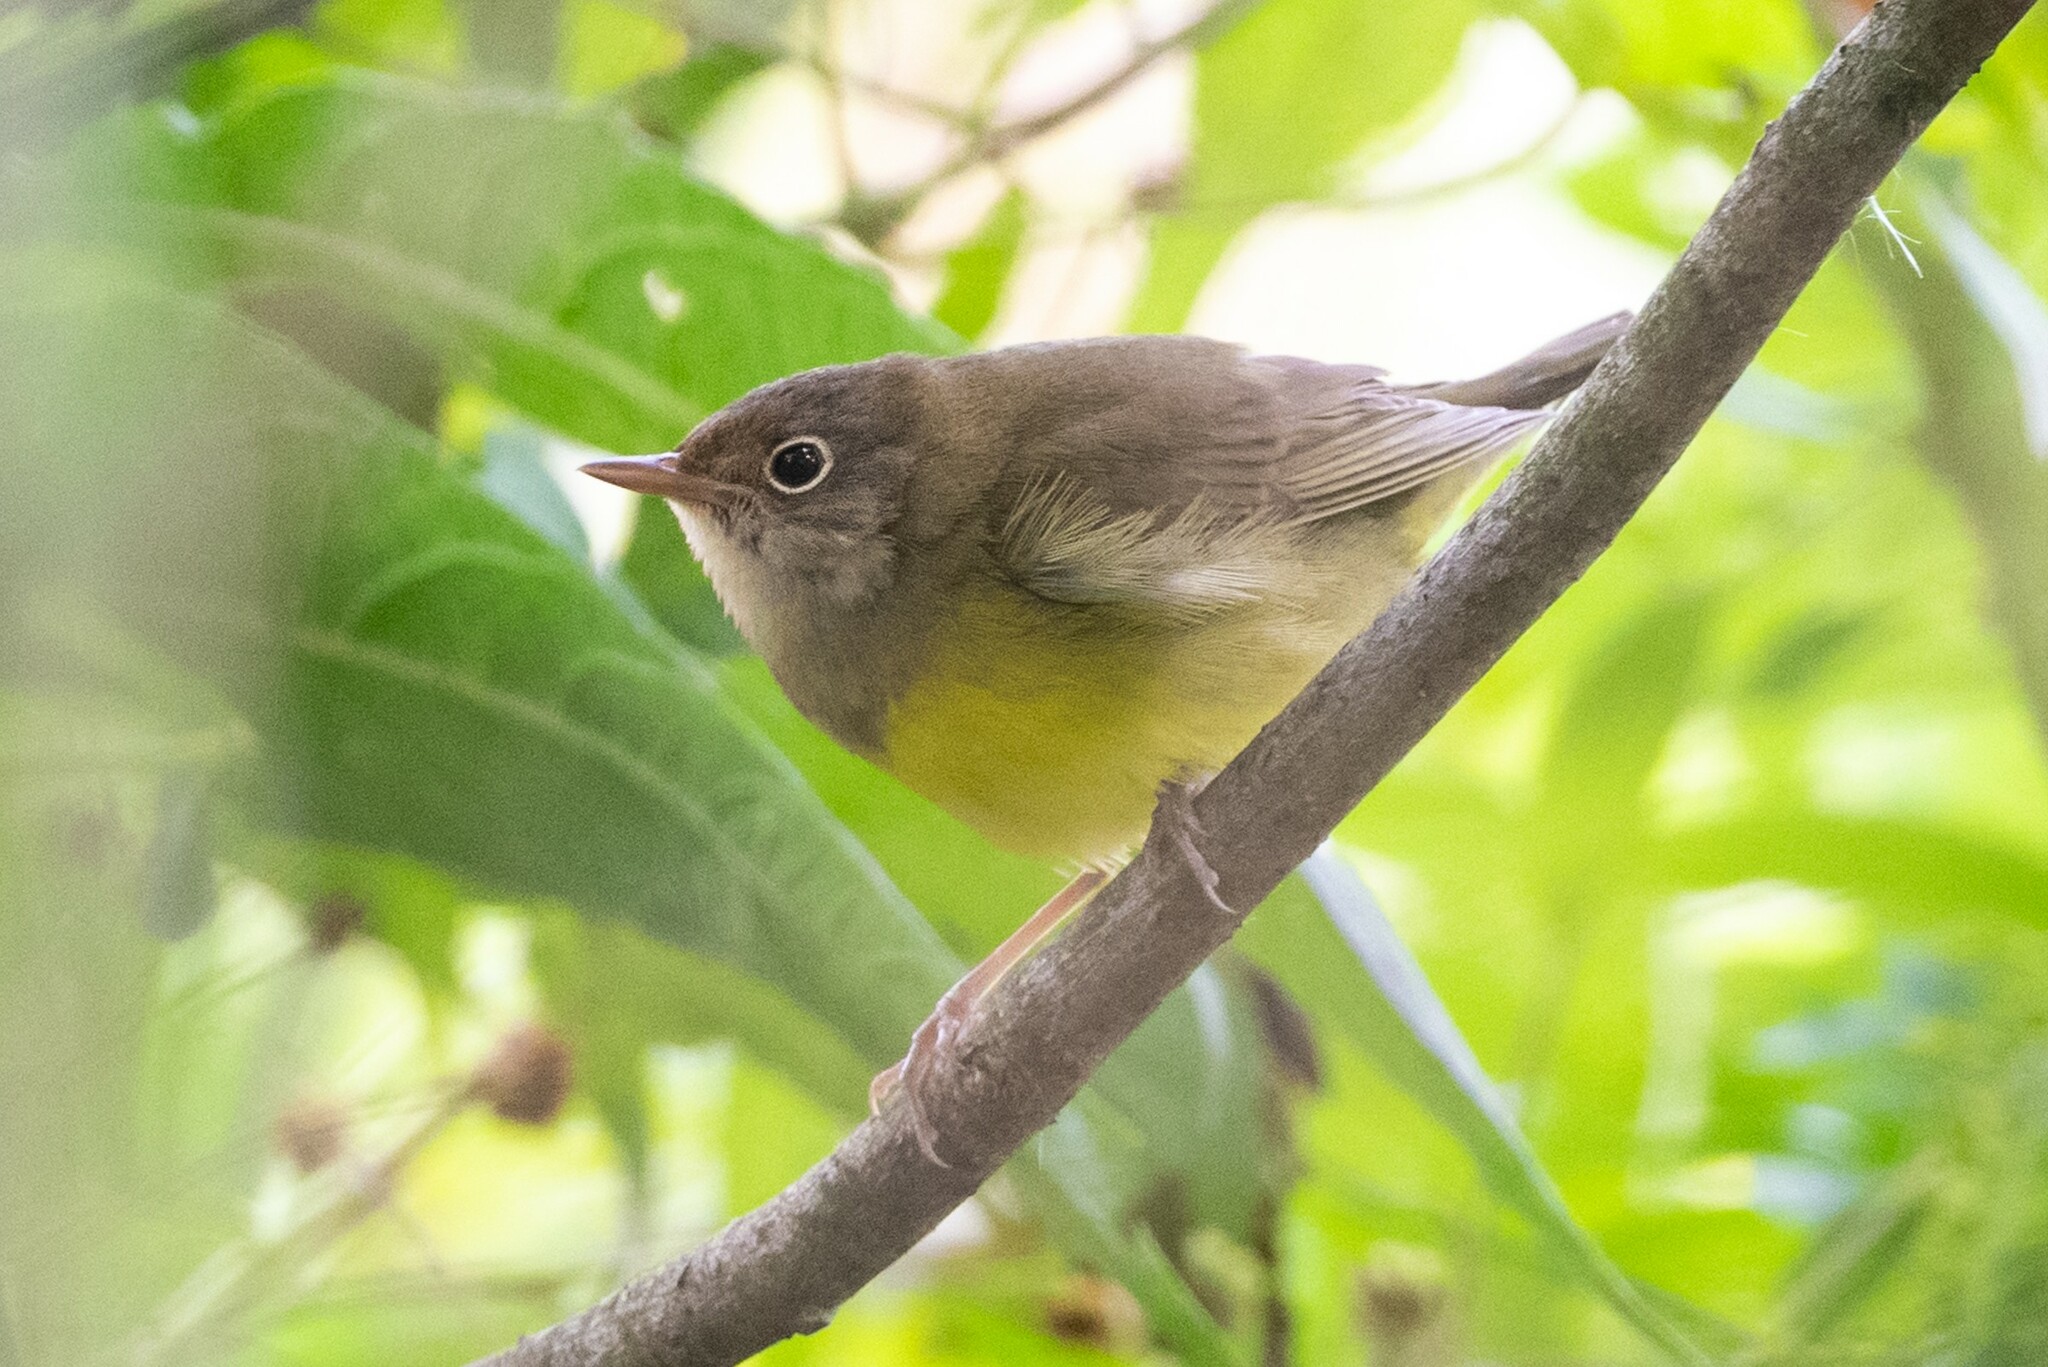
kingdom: Animalia
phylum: Chordata
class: Aves
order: Passeriformes
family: Parulidae
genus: Oporornis
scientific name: Oporornis agilis
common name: Connecticut warbler
